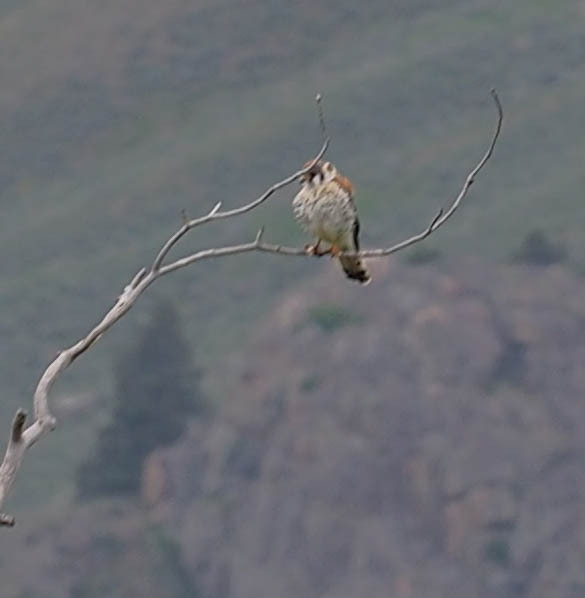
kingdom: Animalia
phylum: Chordata
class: Aves
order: Falconiformes
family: Falconidae
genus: Falco
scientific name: Falco sparverius
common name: American kestrel
